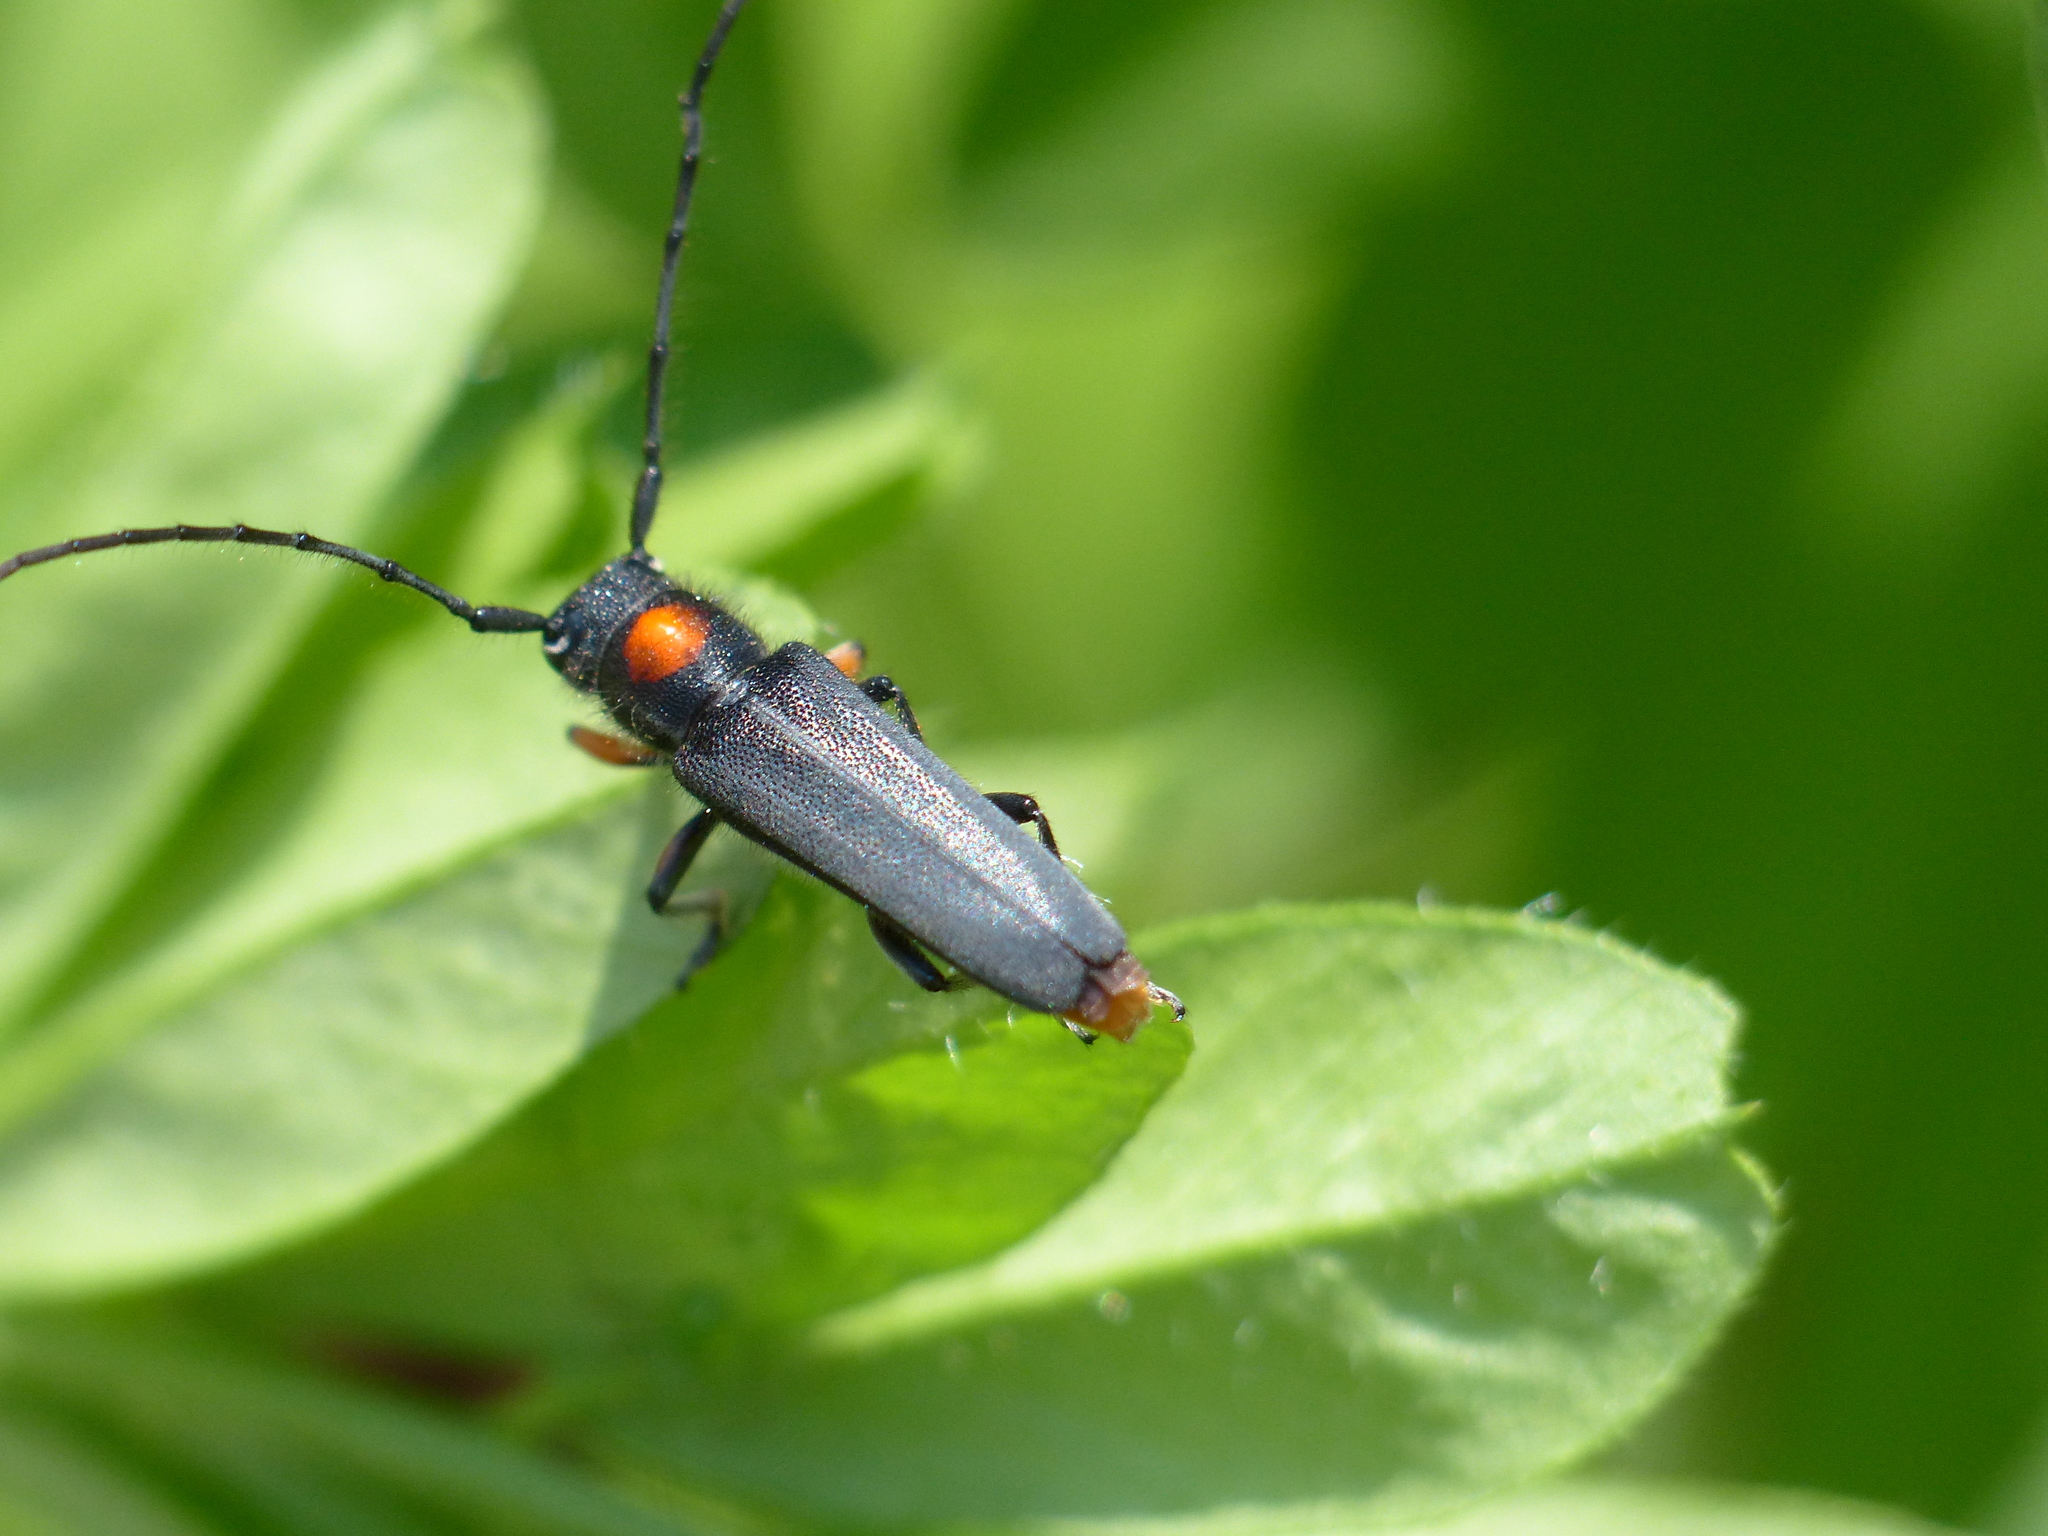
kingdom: Animalia
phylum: Arthropoda
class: Insecta
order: Coleoptera
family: Cerambycidae
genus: Phytoecia
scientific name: Phytoecia rufiventris
